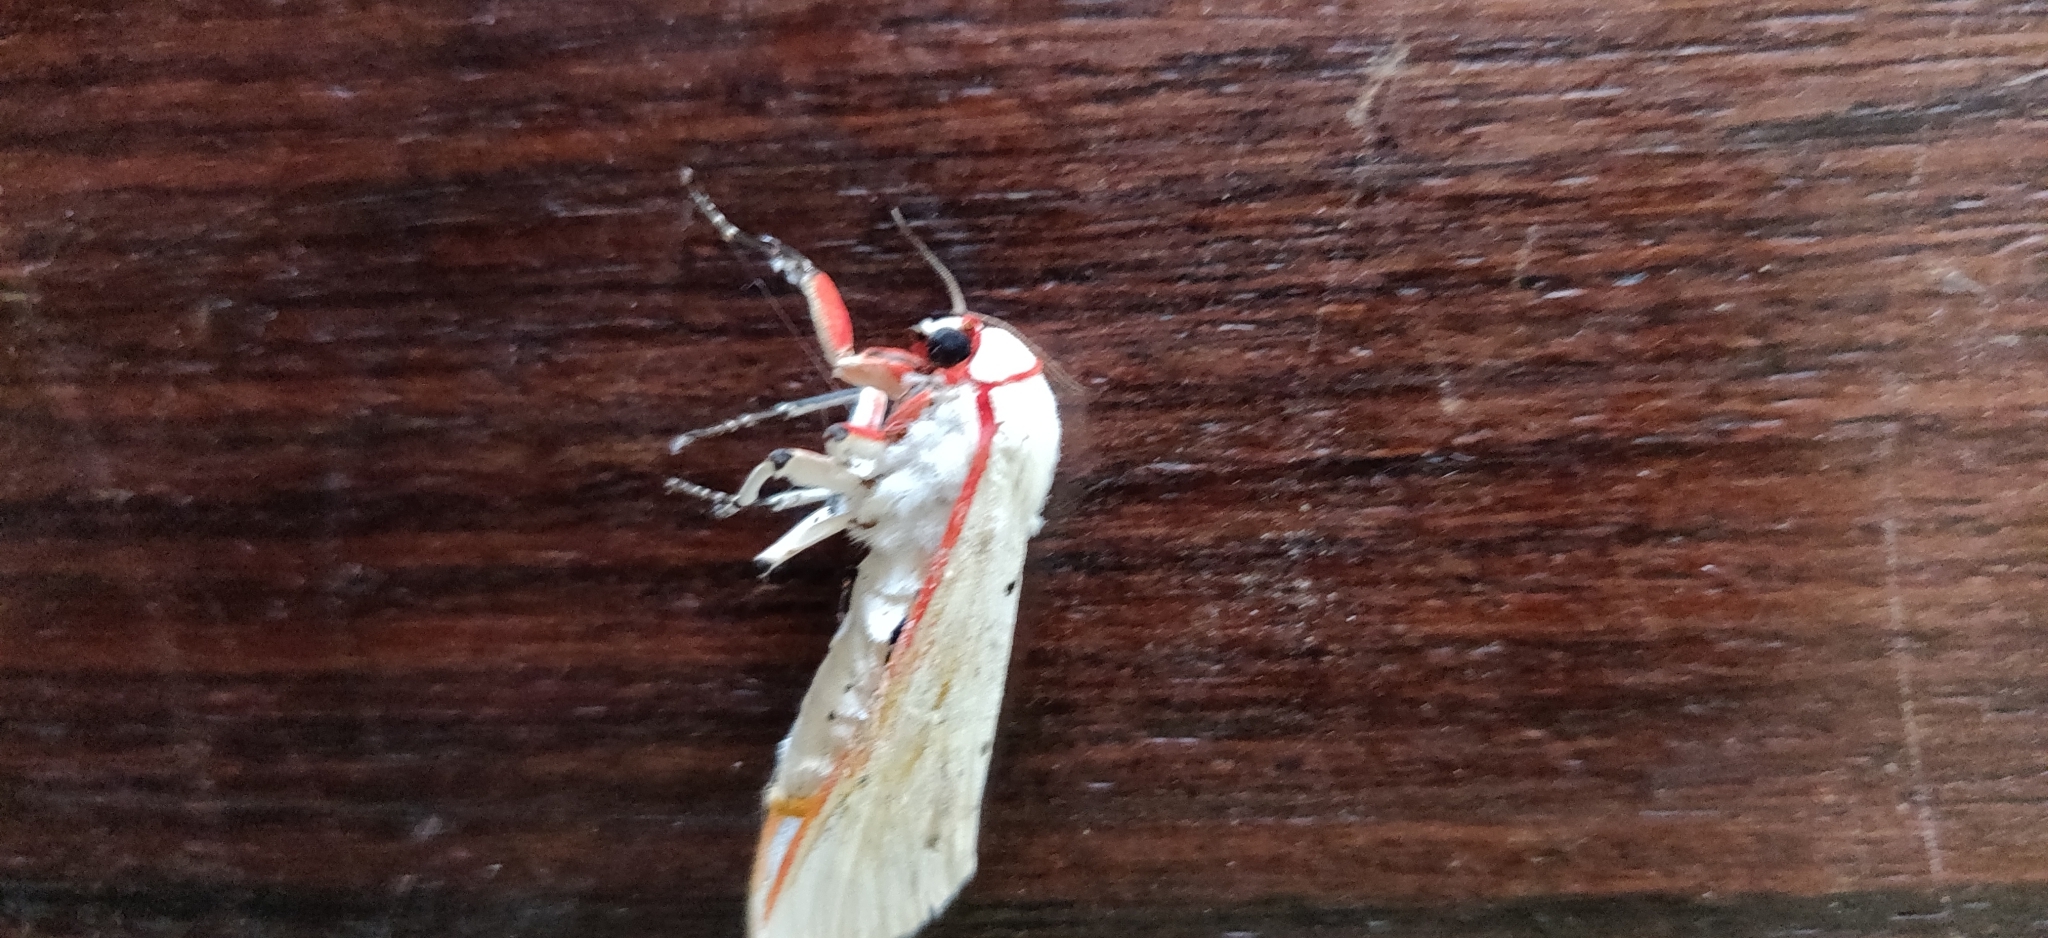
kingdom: Animalia
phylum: Arthropoda
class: Insecta
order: Lepidoptera
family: Erebidae
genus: Aloa
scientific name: Aloa lactinea
